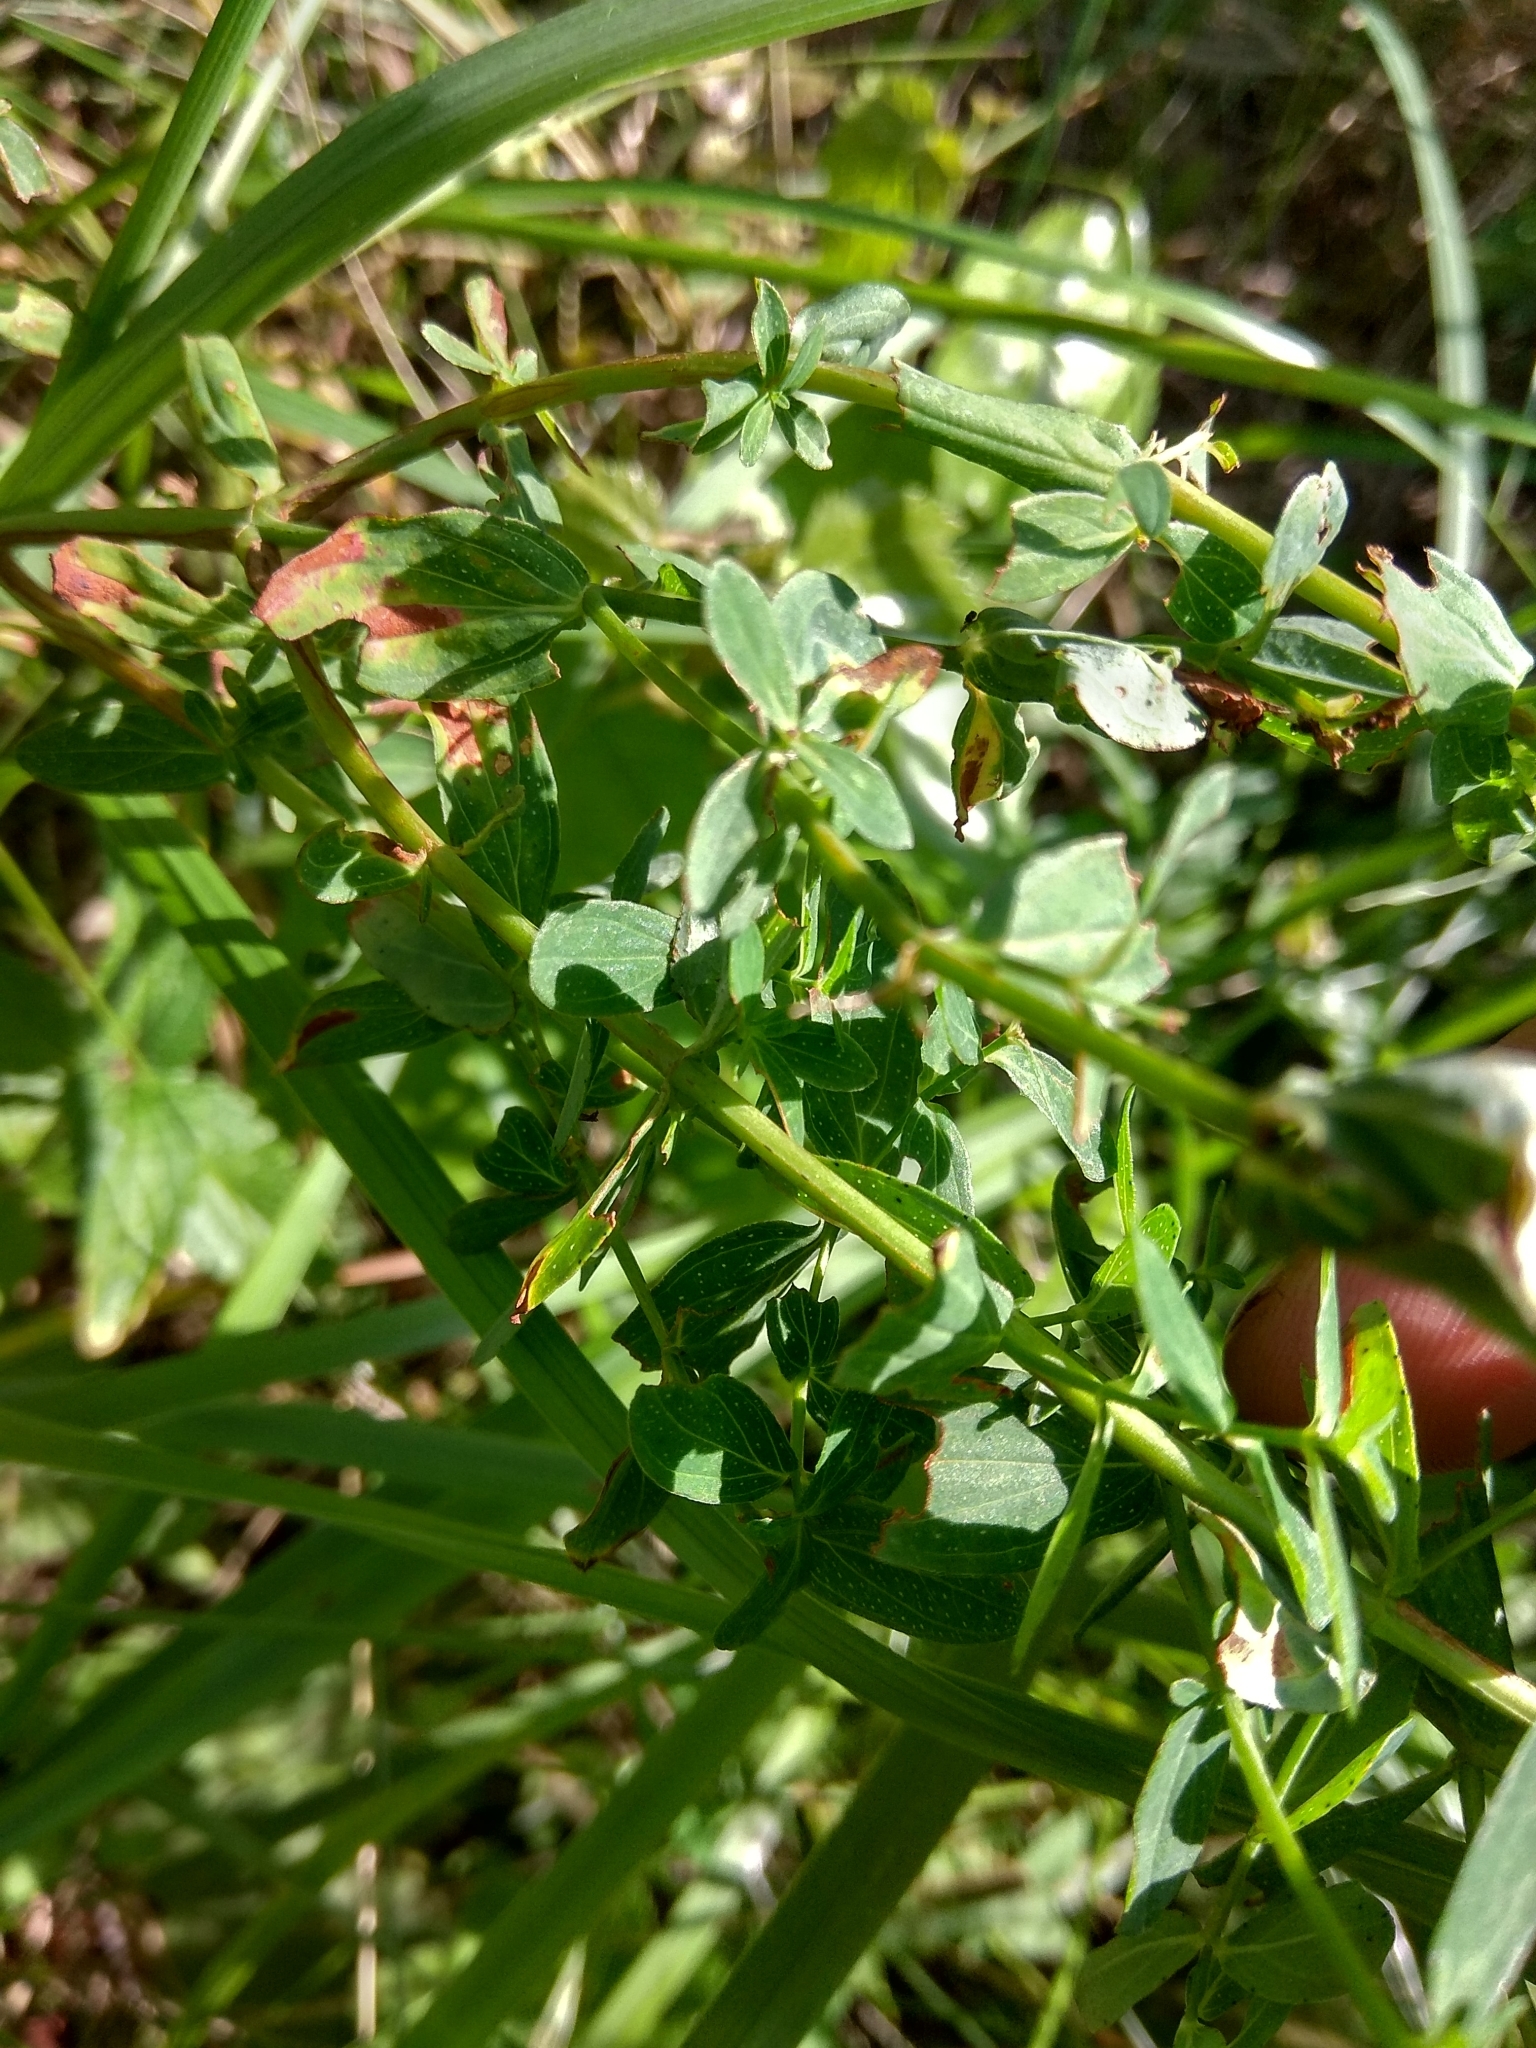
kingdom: Plantae
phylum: Tracheophyta
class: Magnoliopsida
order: Malpighiales
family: Hypericaceae
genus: Hypericum
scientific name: Hypericum perforatum
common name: Common st. johnswort
